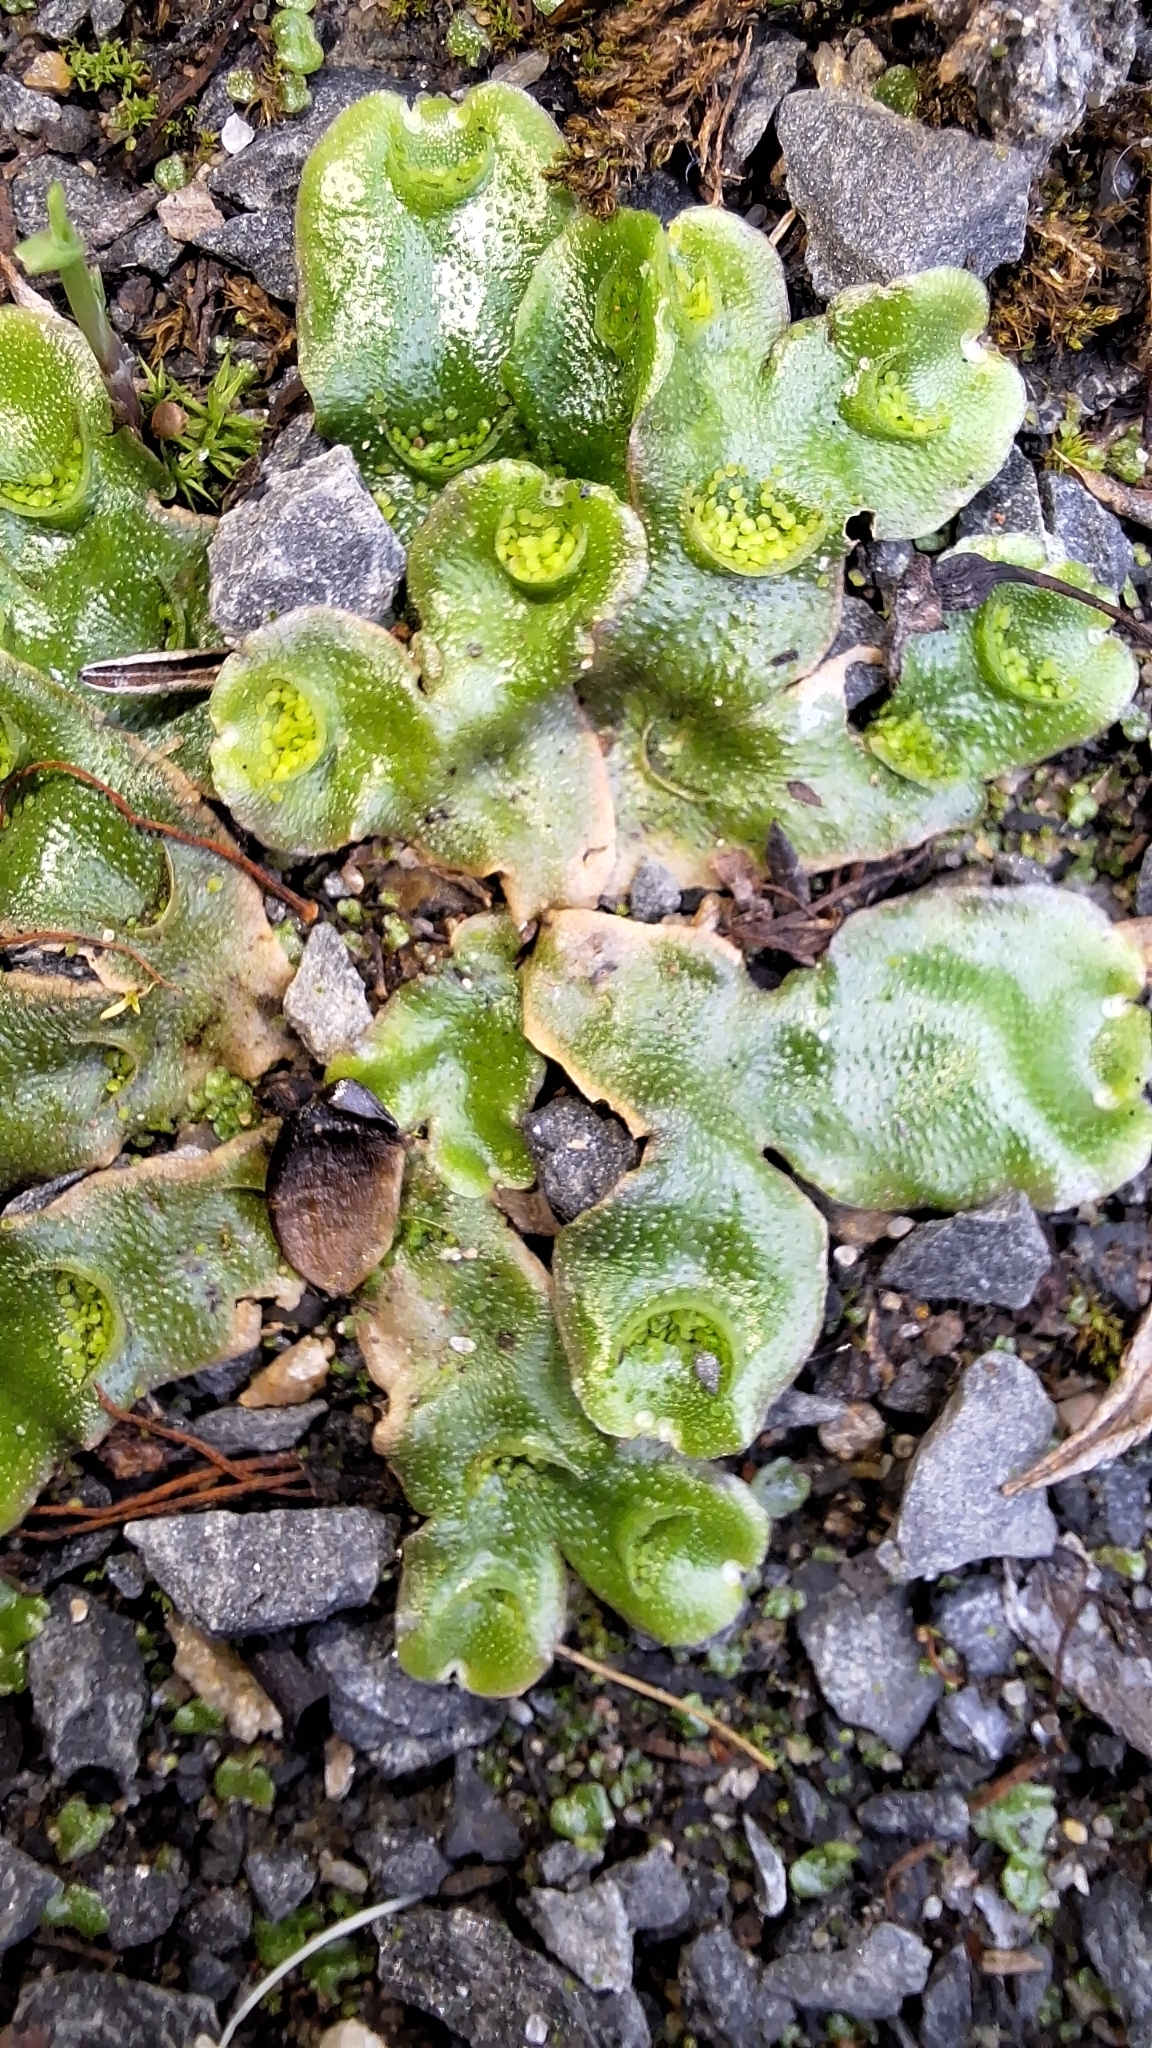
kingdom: Plantae
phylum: Marchantiophyta
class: Marchantiopsida
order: Lunulariales
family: Lunulariaceae
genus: Lunularia
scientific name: Lunularia cruciata
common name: Crescent-cup liverwort
